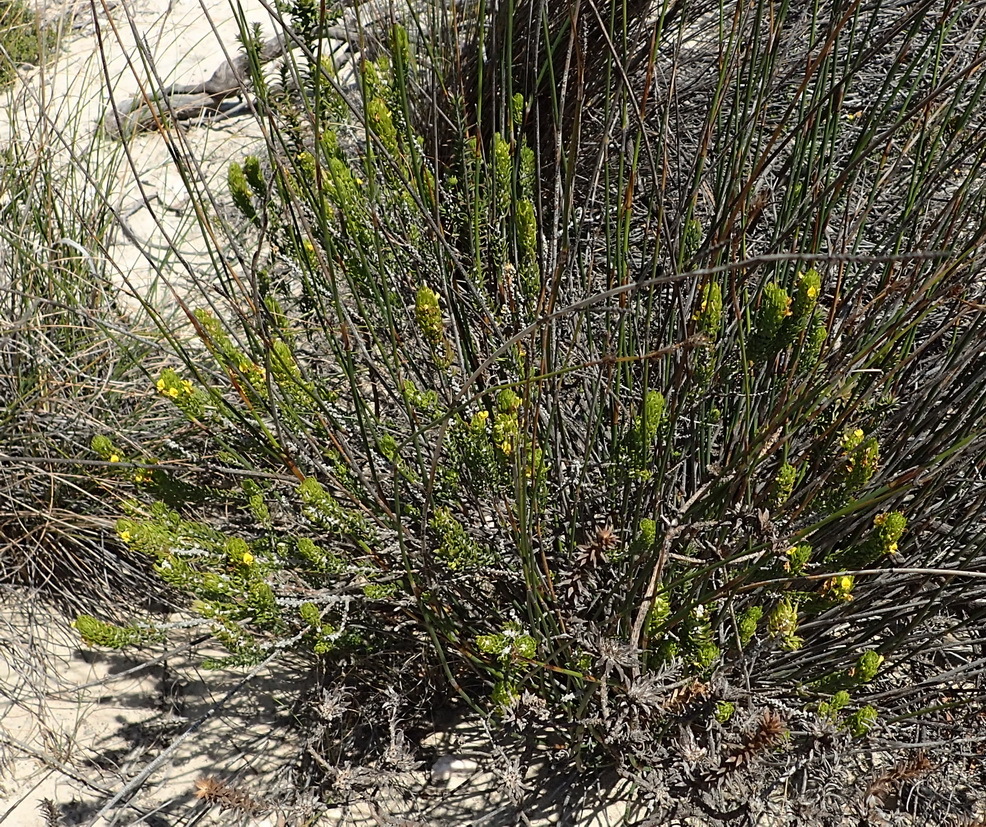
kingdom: Plantae
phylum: Tracheophyta
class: Magnoliopsida
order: Fabales
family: Fabaceae
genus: Aspalathus
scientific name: Aspalathus mundiana
